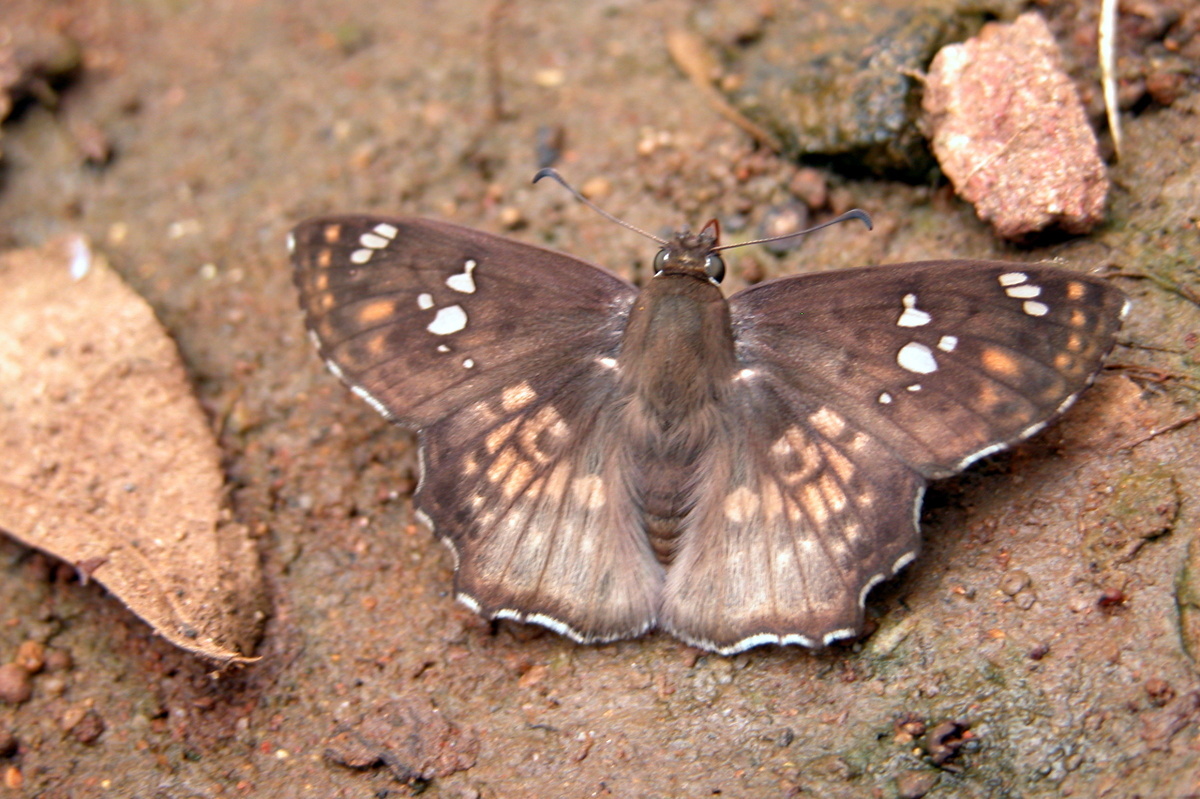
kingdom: Animalia
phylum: Arthropoda
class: Insecta
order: Lepidoptera
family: Hesperiidae
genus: Caprona
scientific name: Caprona ransonnettii
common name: Golden angle
